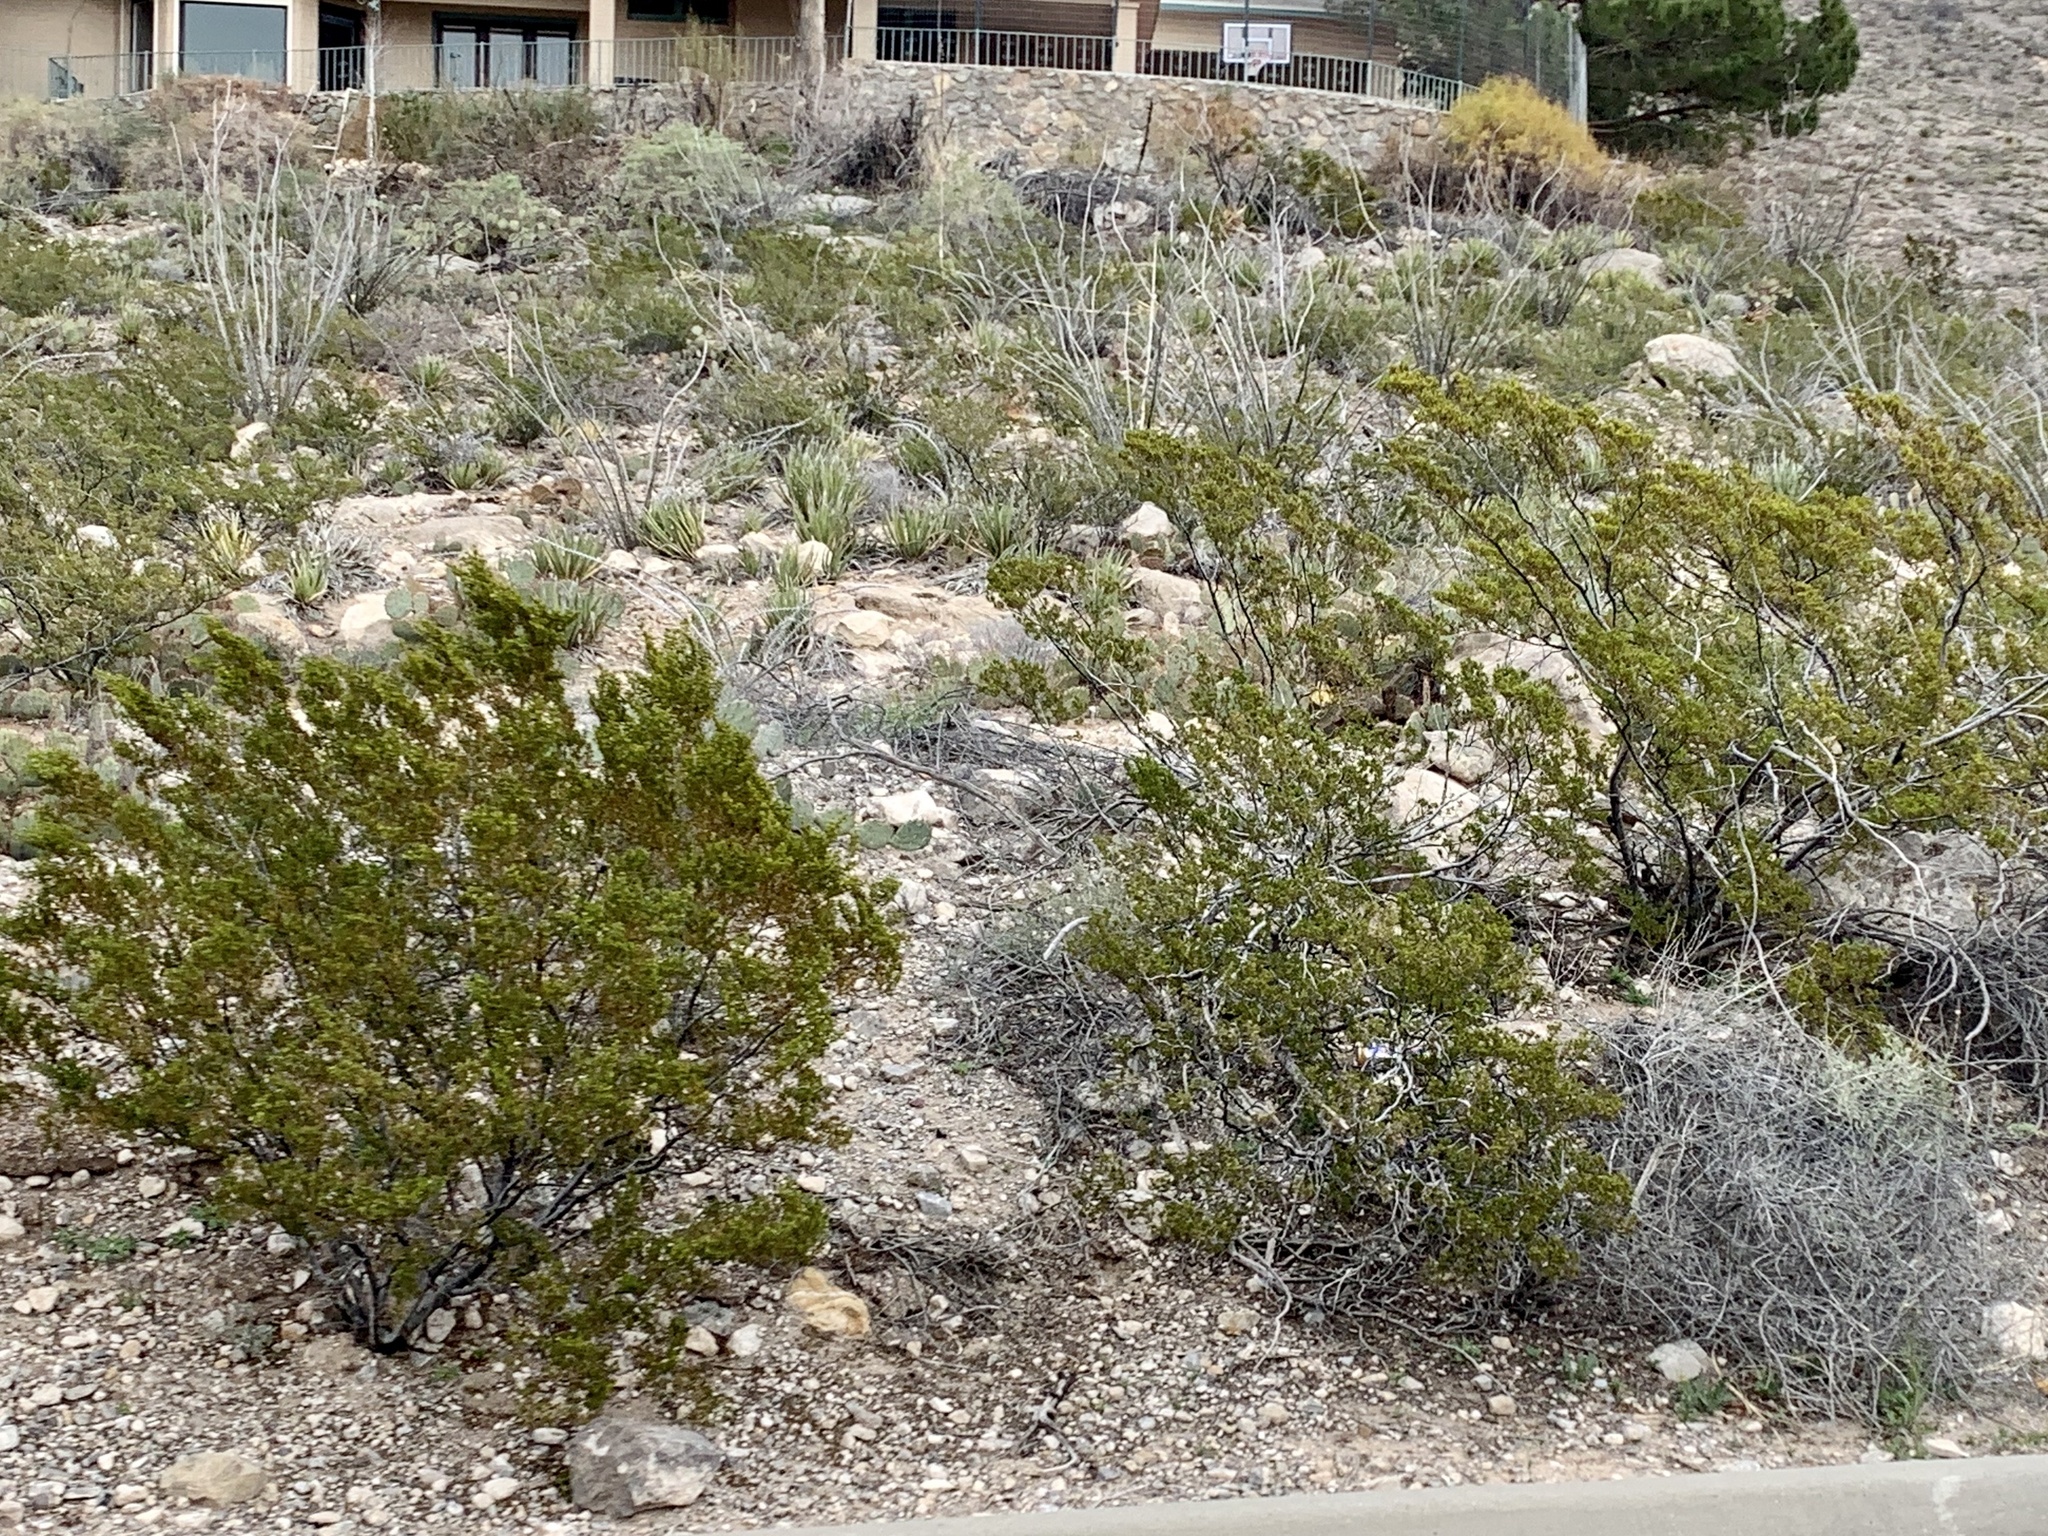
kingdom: Plantae
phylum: Tracheophyta
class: Magnoliopsida
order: Zygophyllales
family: Zygophyllaceae
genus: Larrea
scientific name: Larrea tridentata
